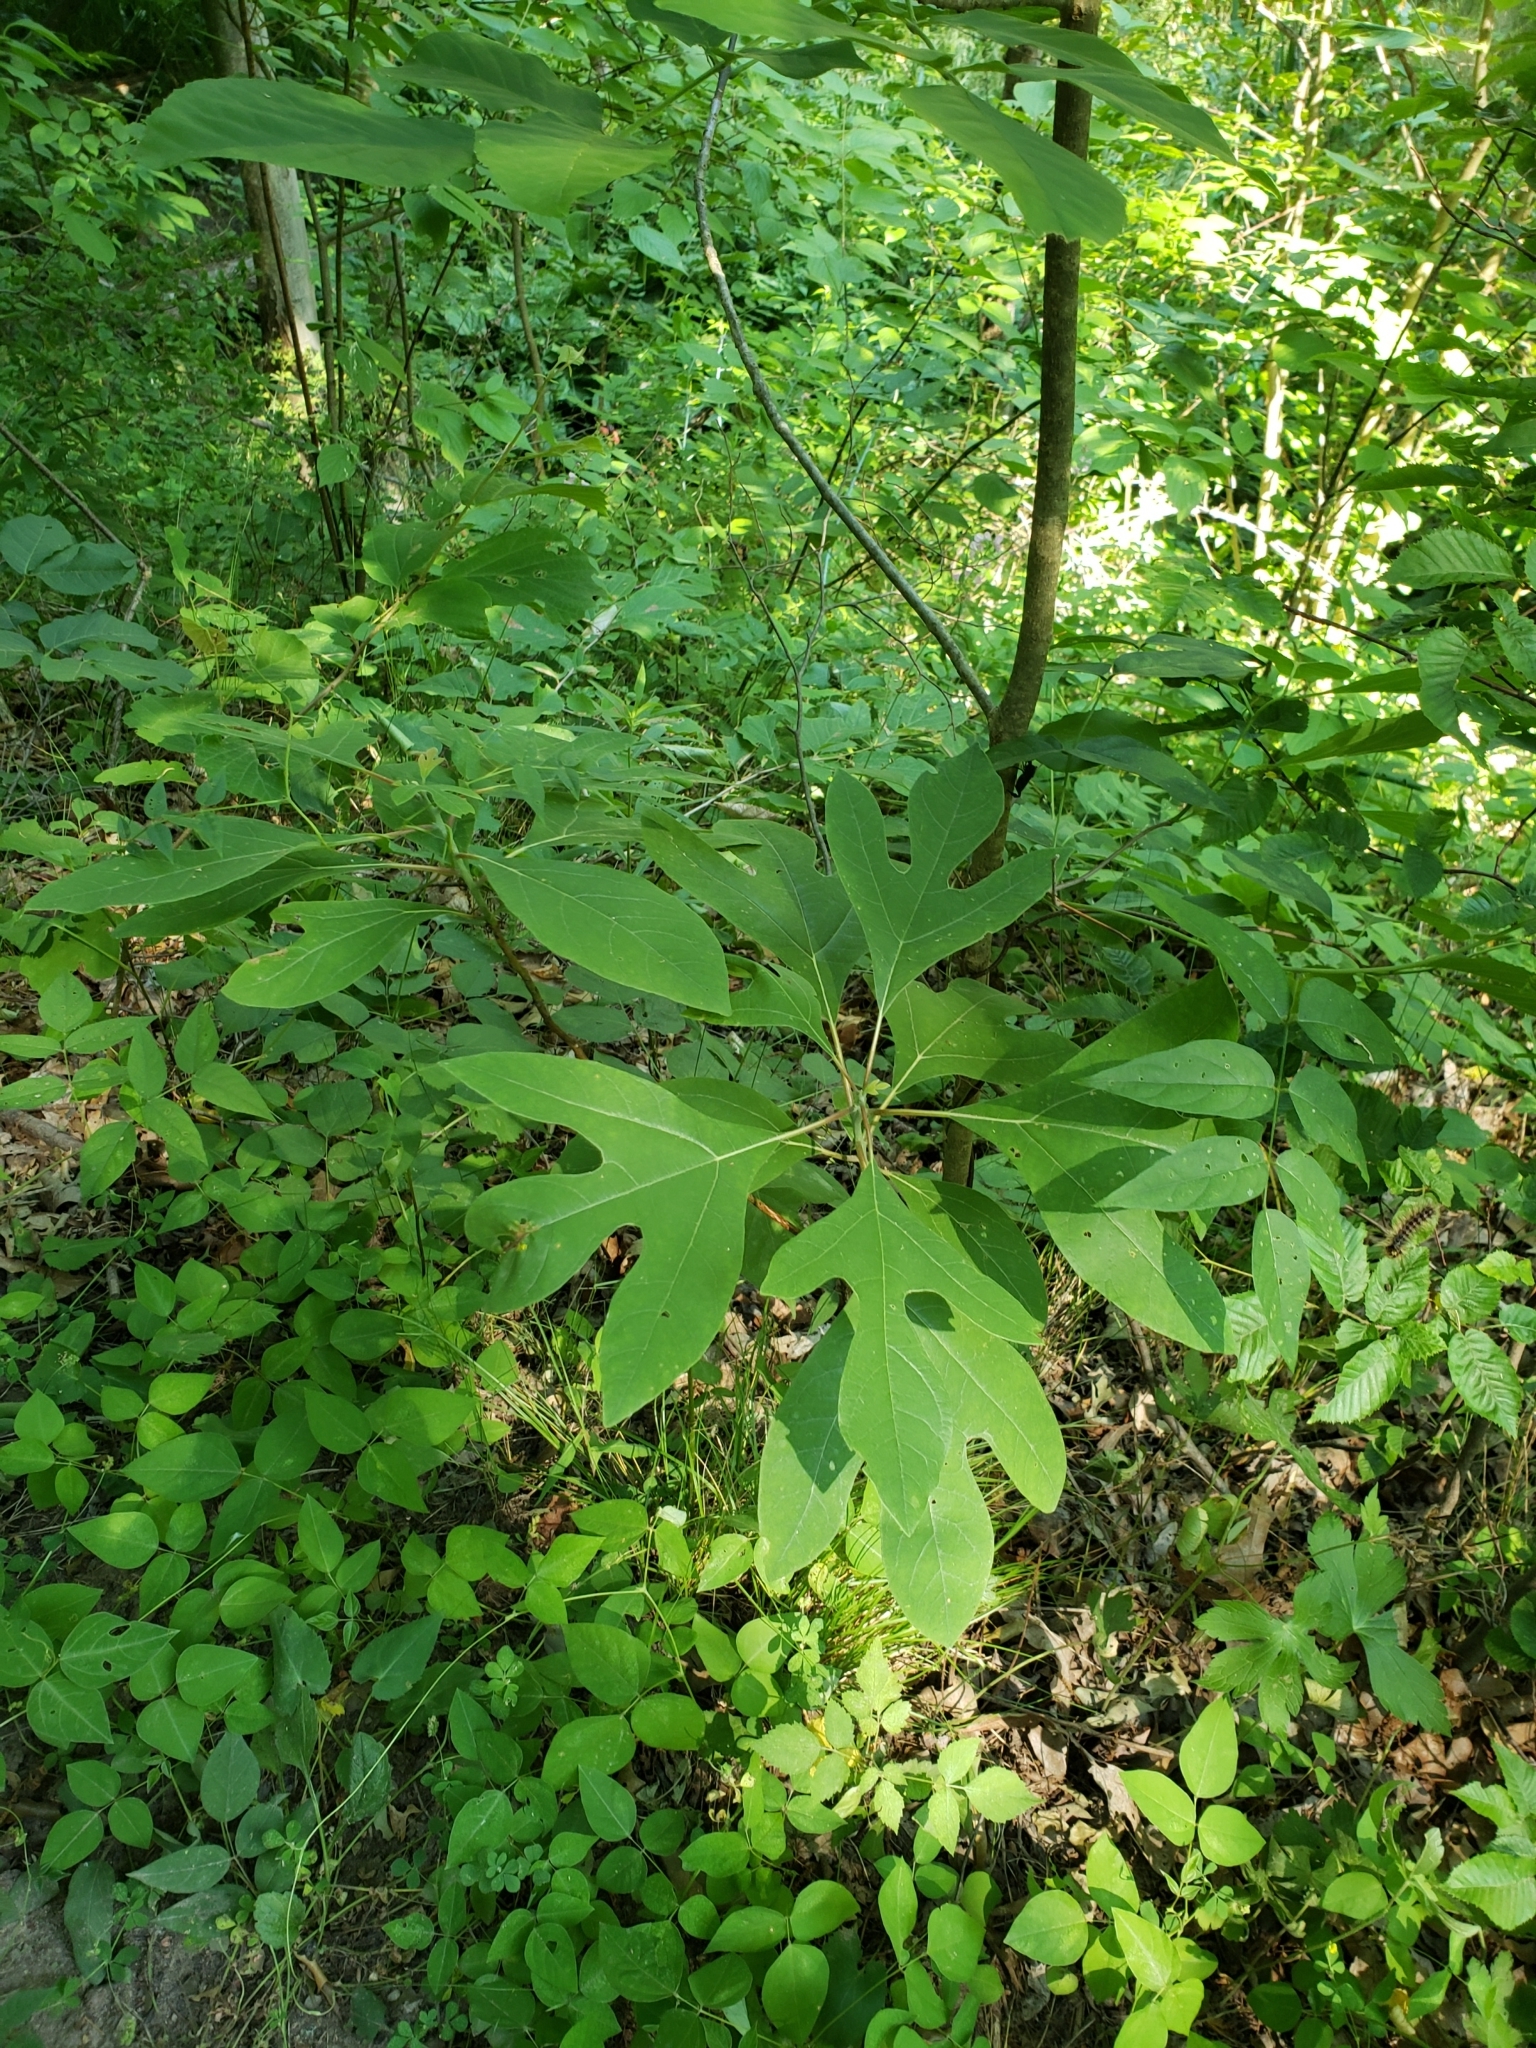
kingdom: Plantae
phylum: Tracheophyta
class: Magnoliopsida
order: Laurales
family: Lauraceae
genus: Sassafras
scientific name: Sassafras albidum
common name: Sassafras
